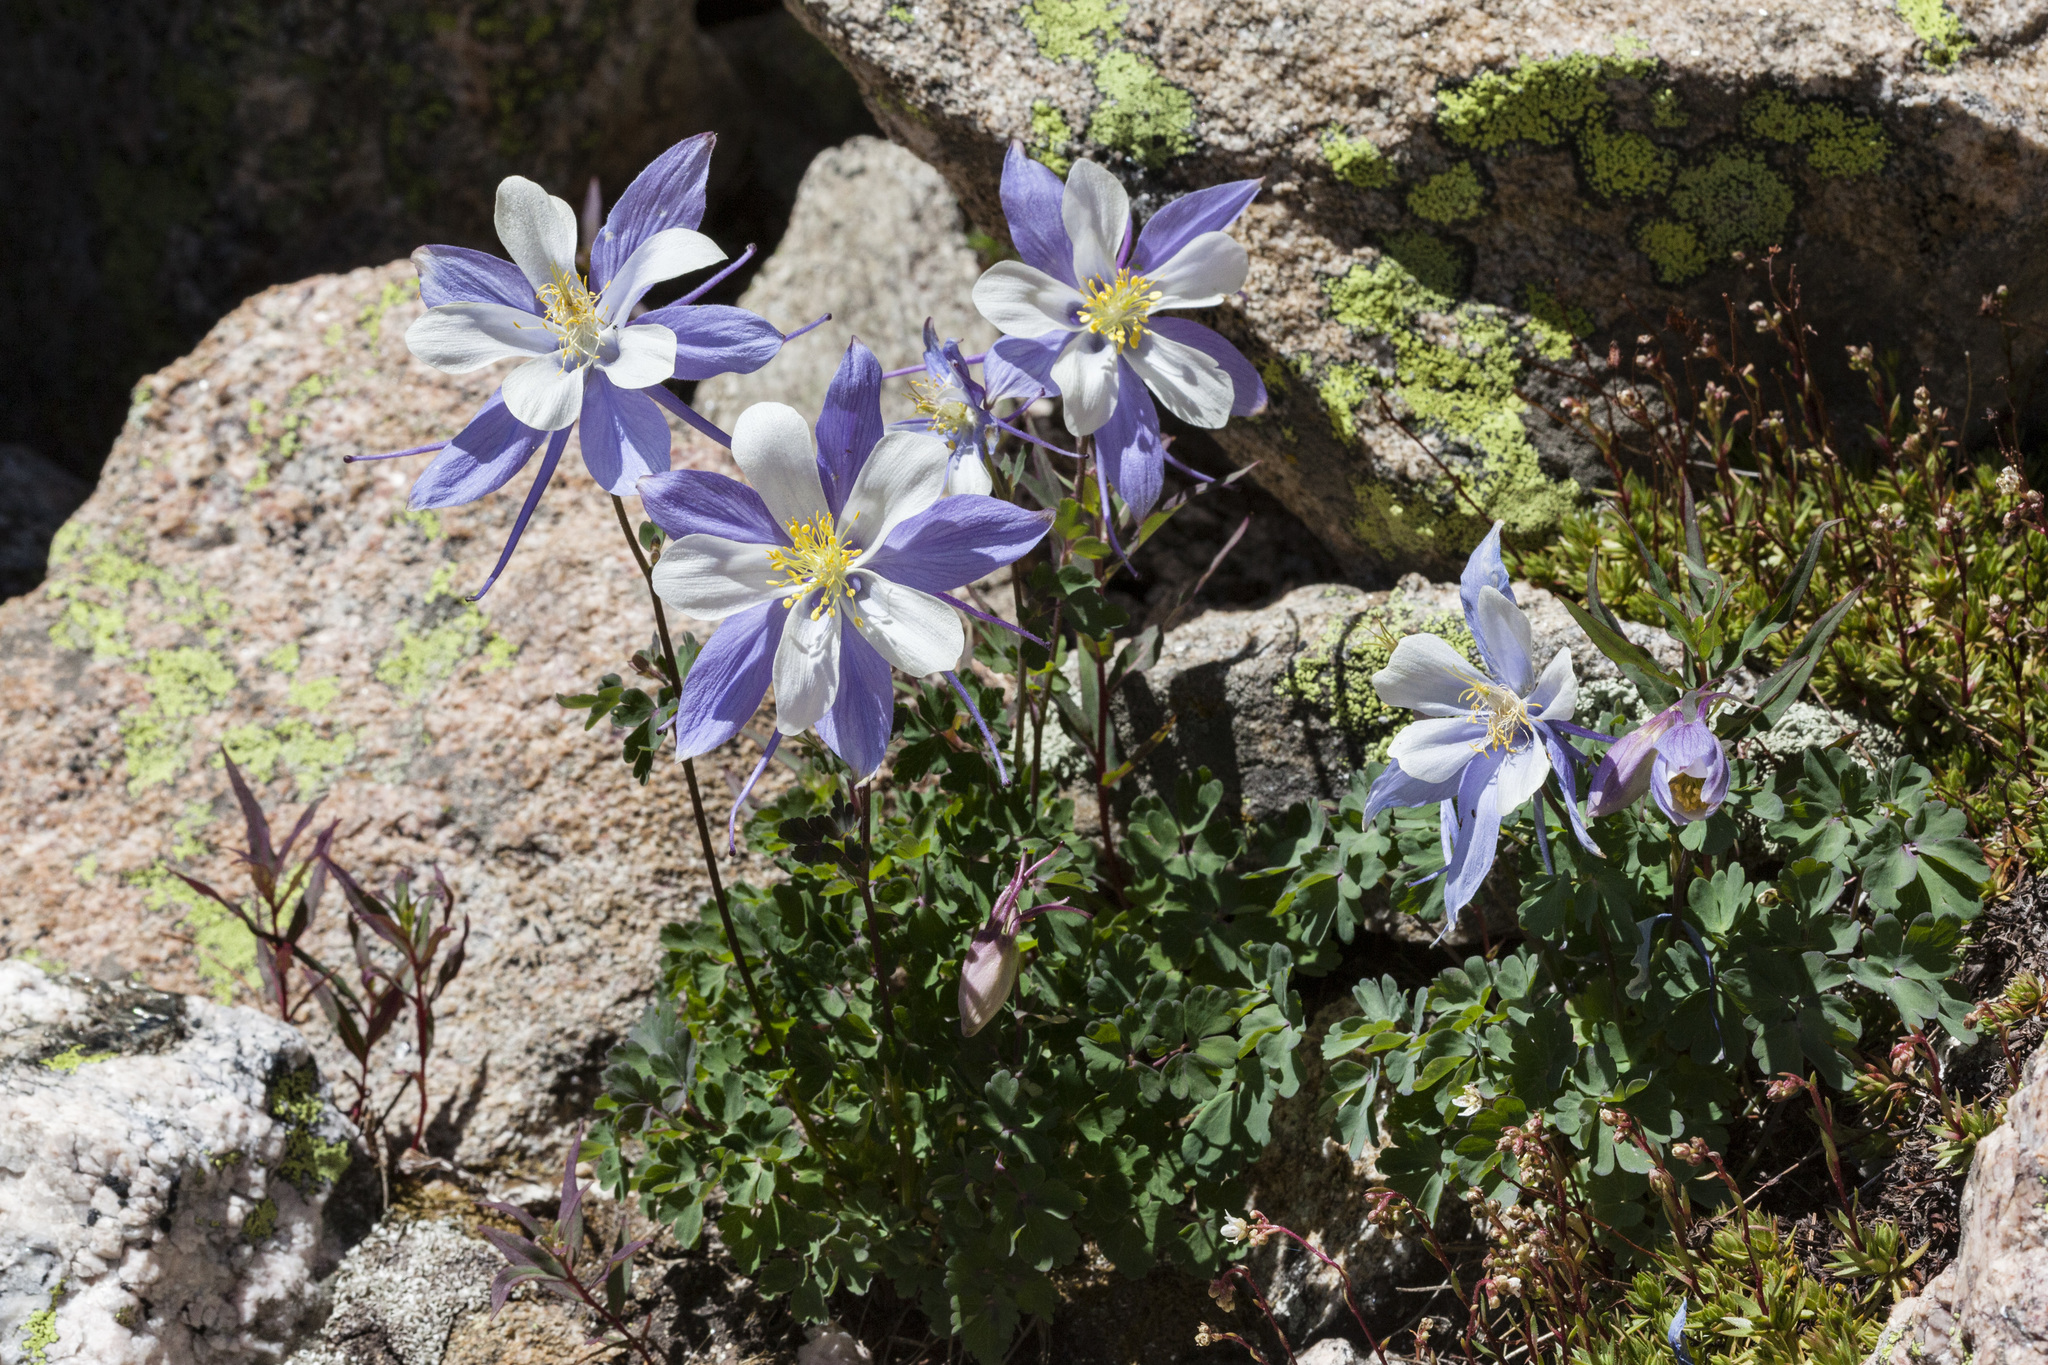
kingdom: Plantae
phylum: Tracheophyta
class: Magnoliopsida
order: Ranunculales
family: Ranunculaceae
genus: Aquilegia
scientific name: Aquilegia coerulea
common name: Rocky mountain columbine
